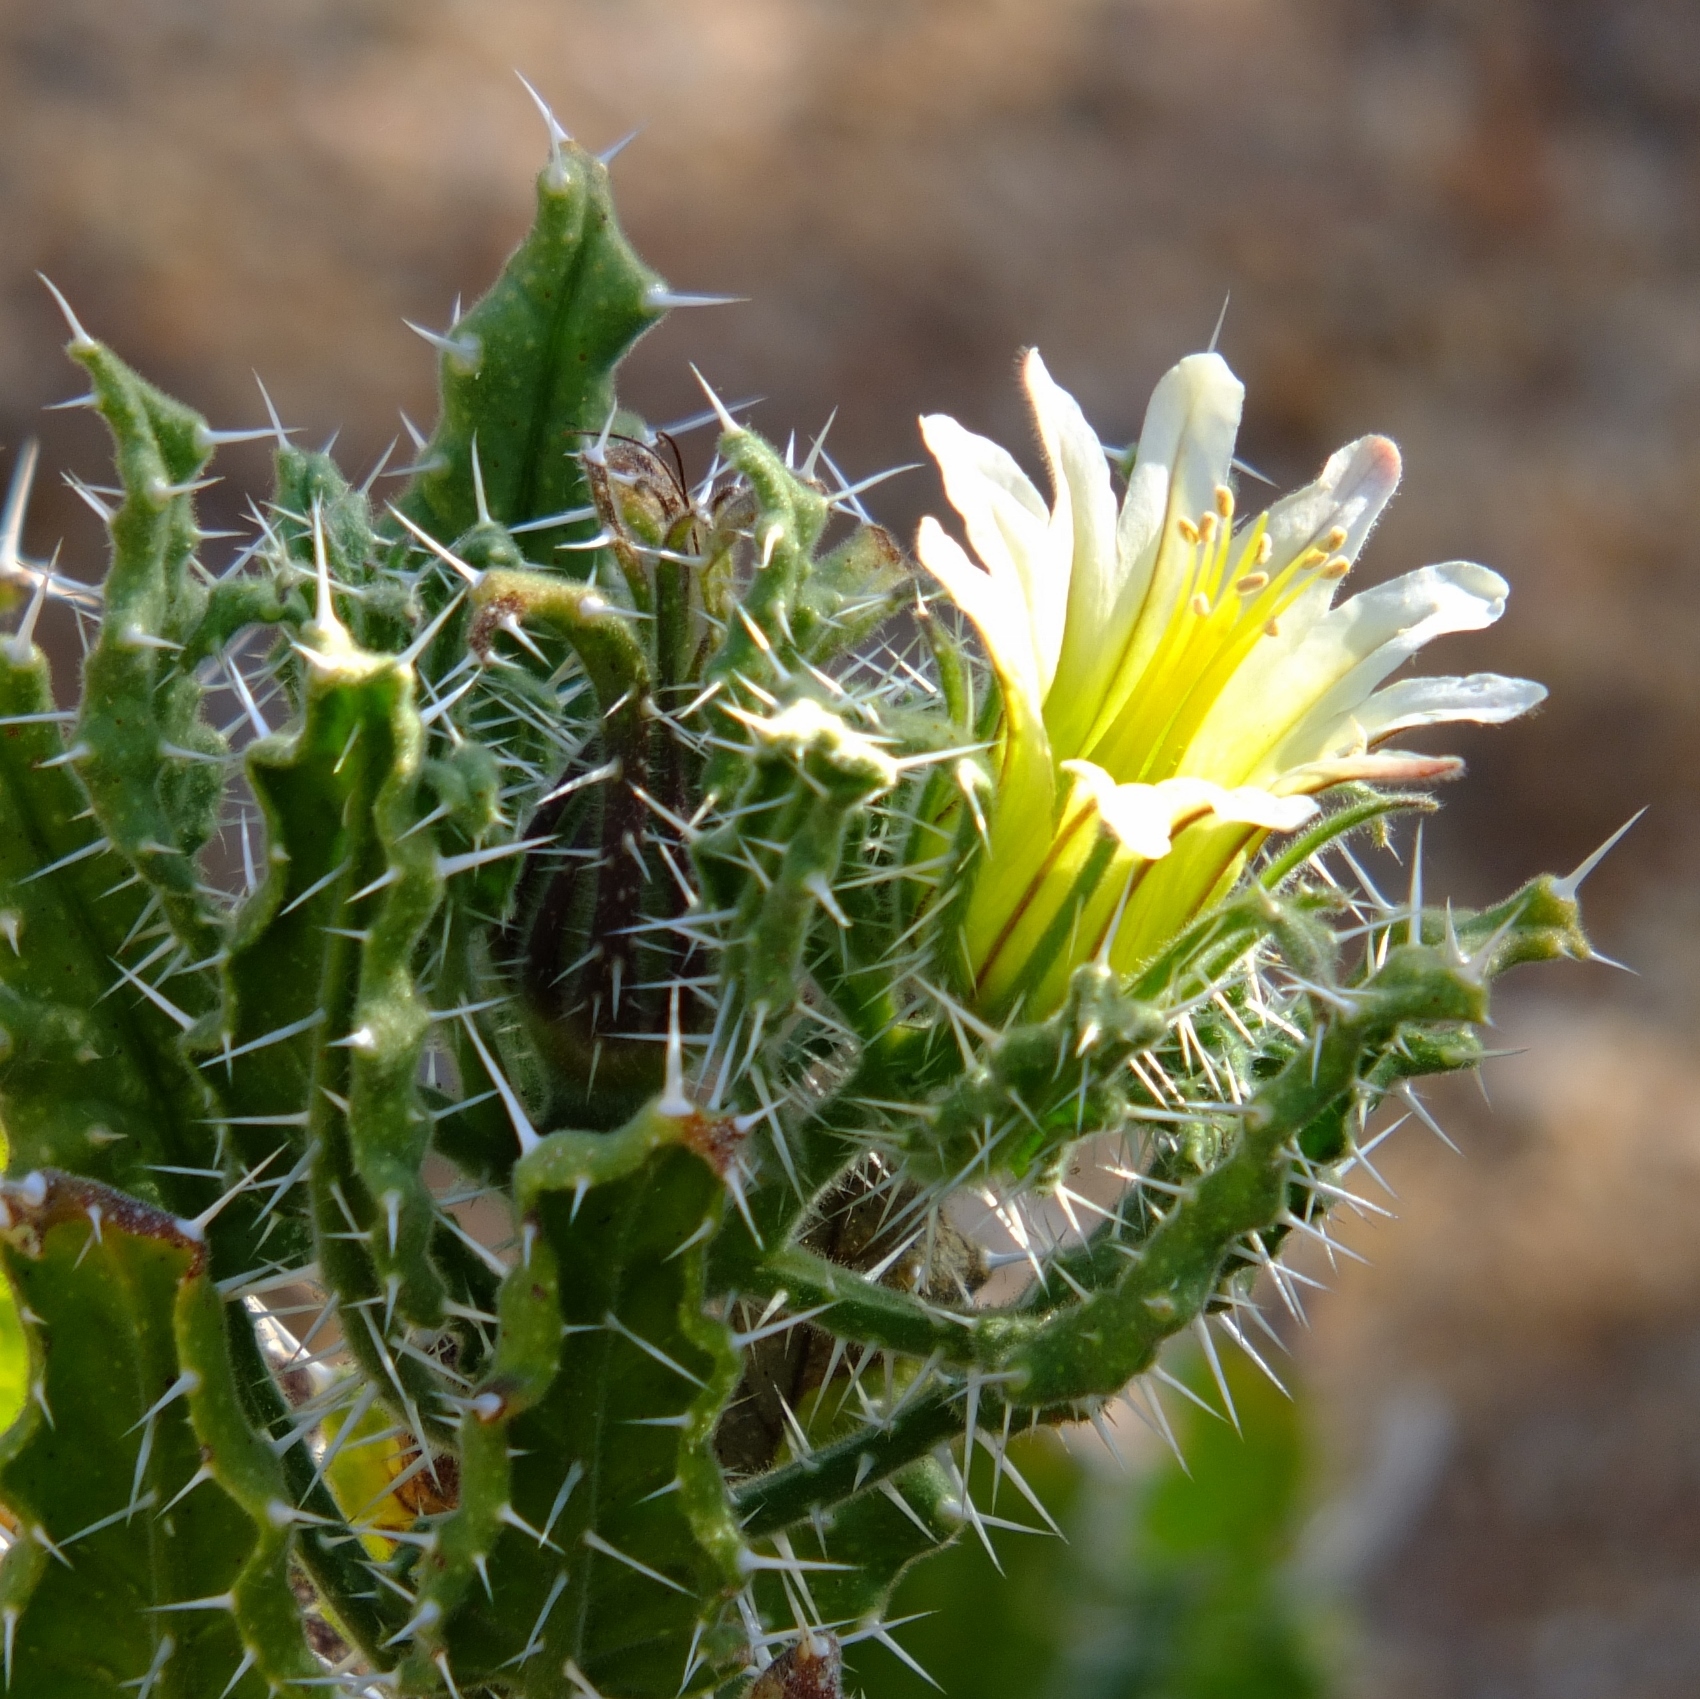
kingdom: Plantae
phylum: Tracheophyta
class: Magnoliopsida
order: Boraginales
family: Boraginaceae
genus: Codon
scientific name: Codon royenii
